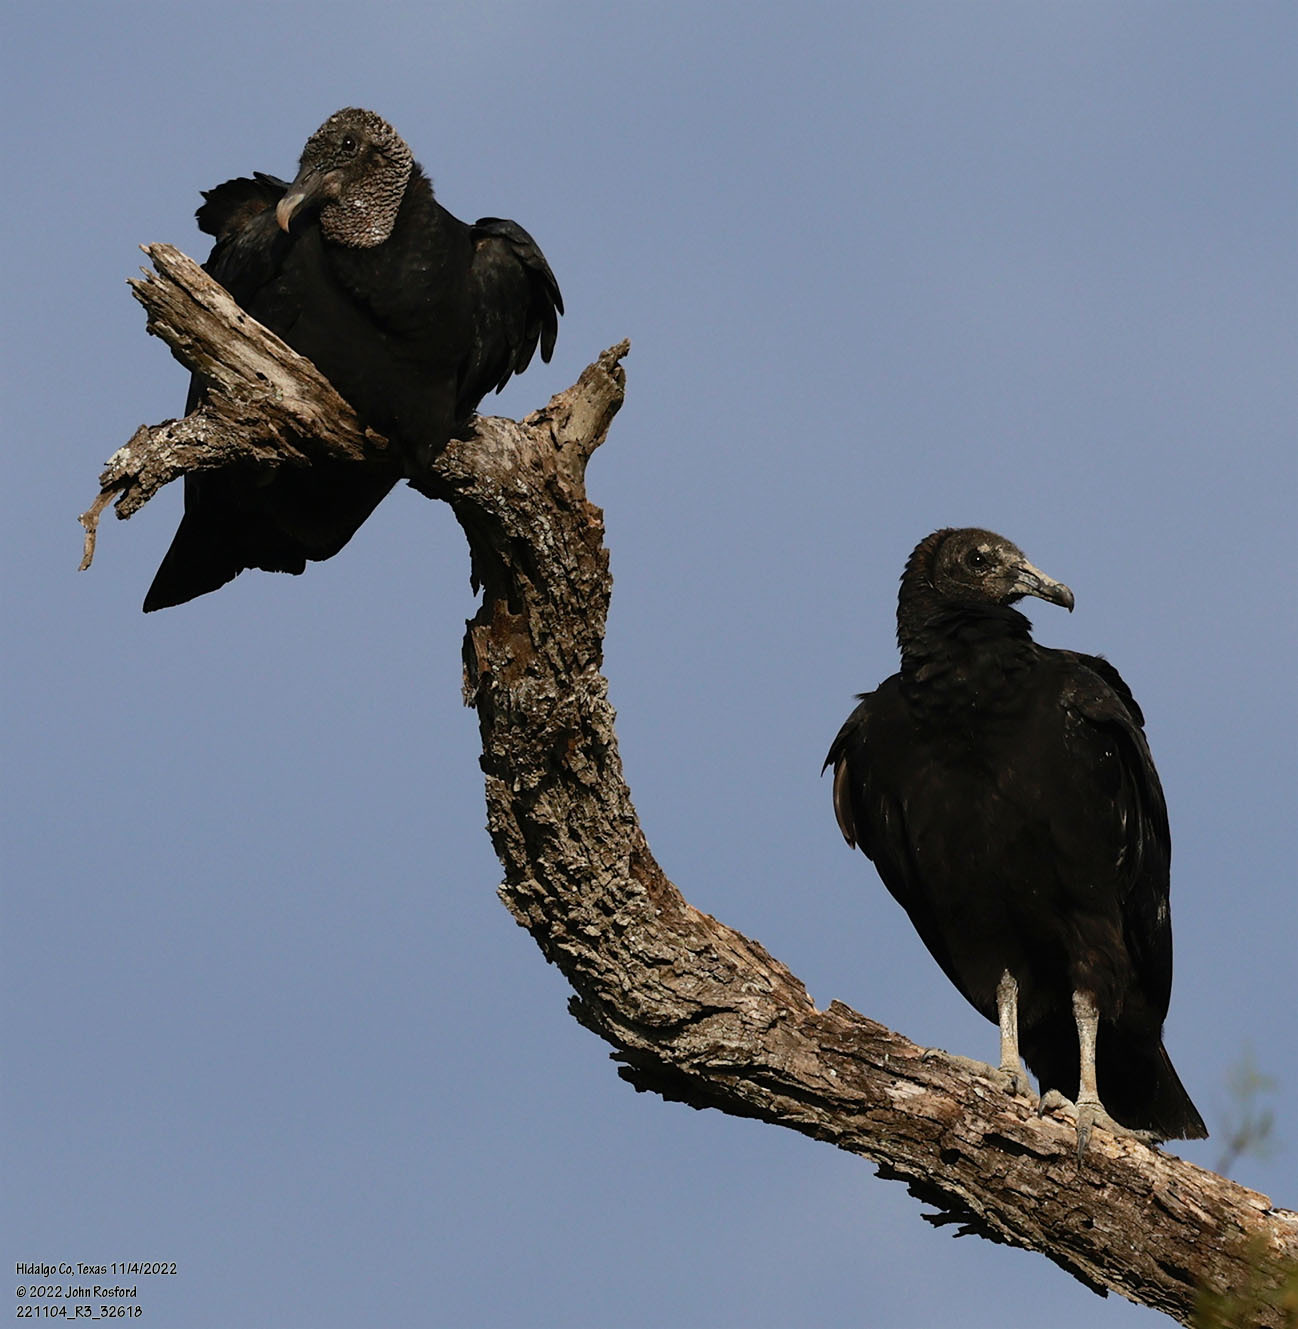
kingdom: Animalia
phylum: Chordata
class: Aves
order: Accipitriformes
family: Cathartidae
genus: Coragyps
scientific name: Coragyps atratus
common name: Black vulture
